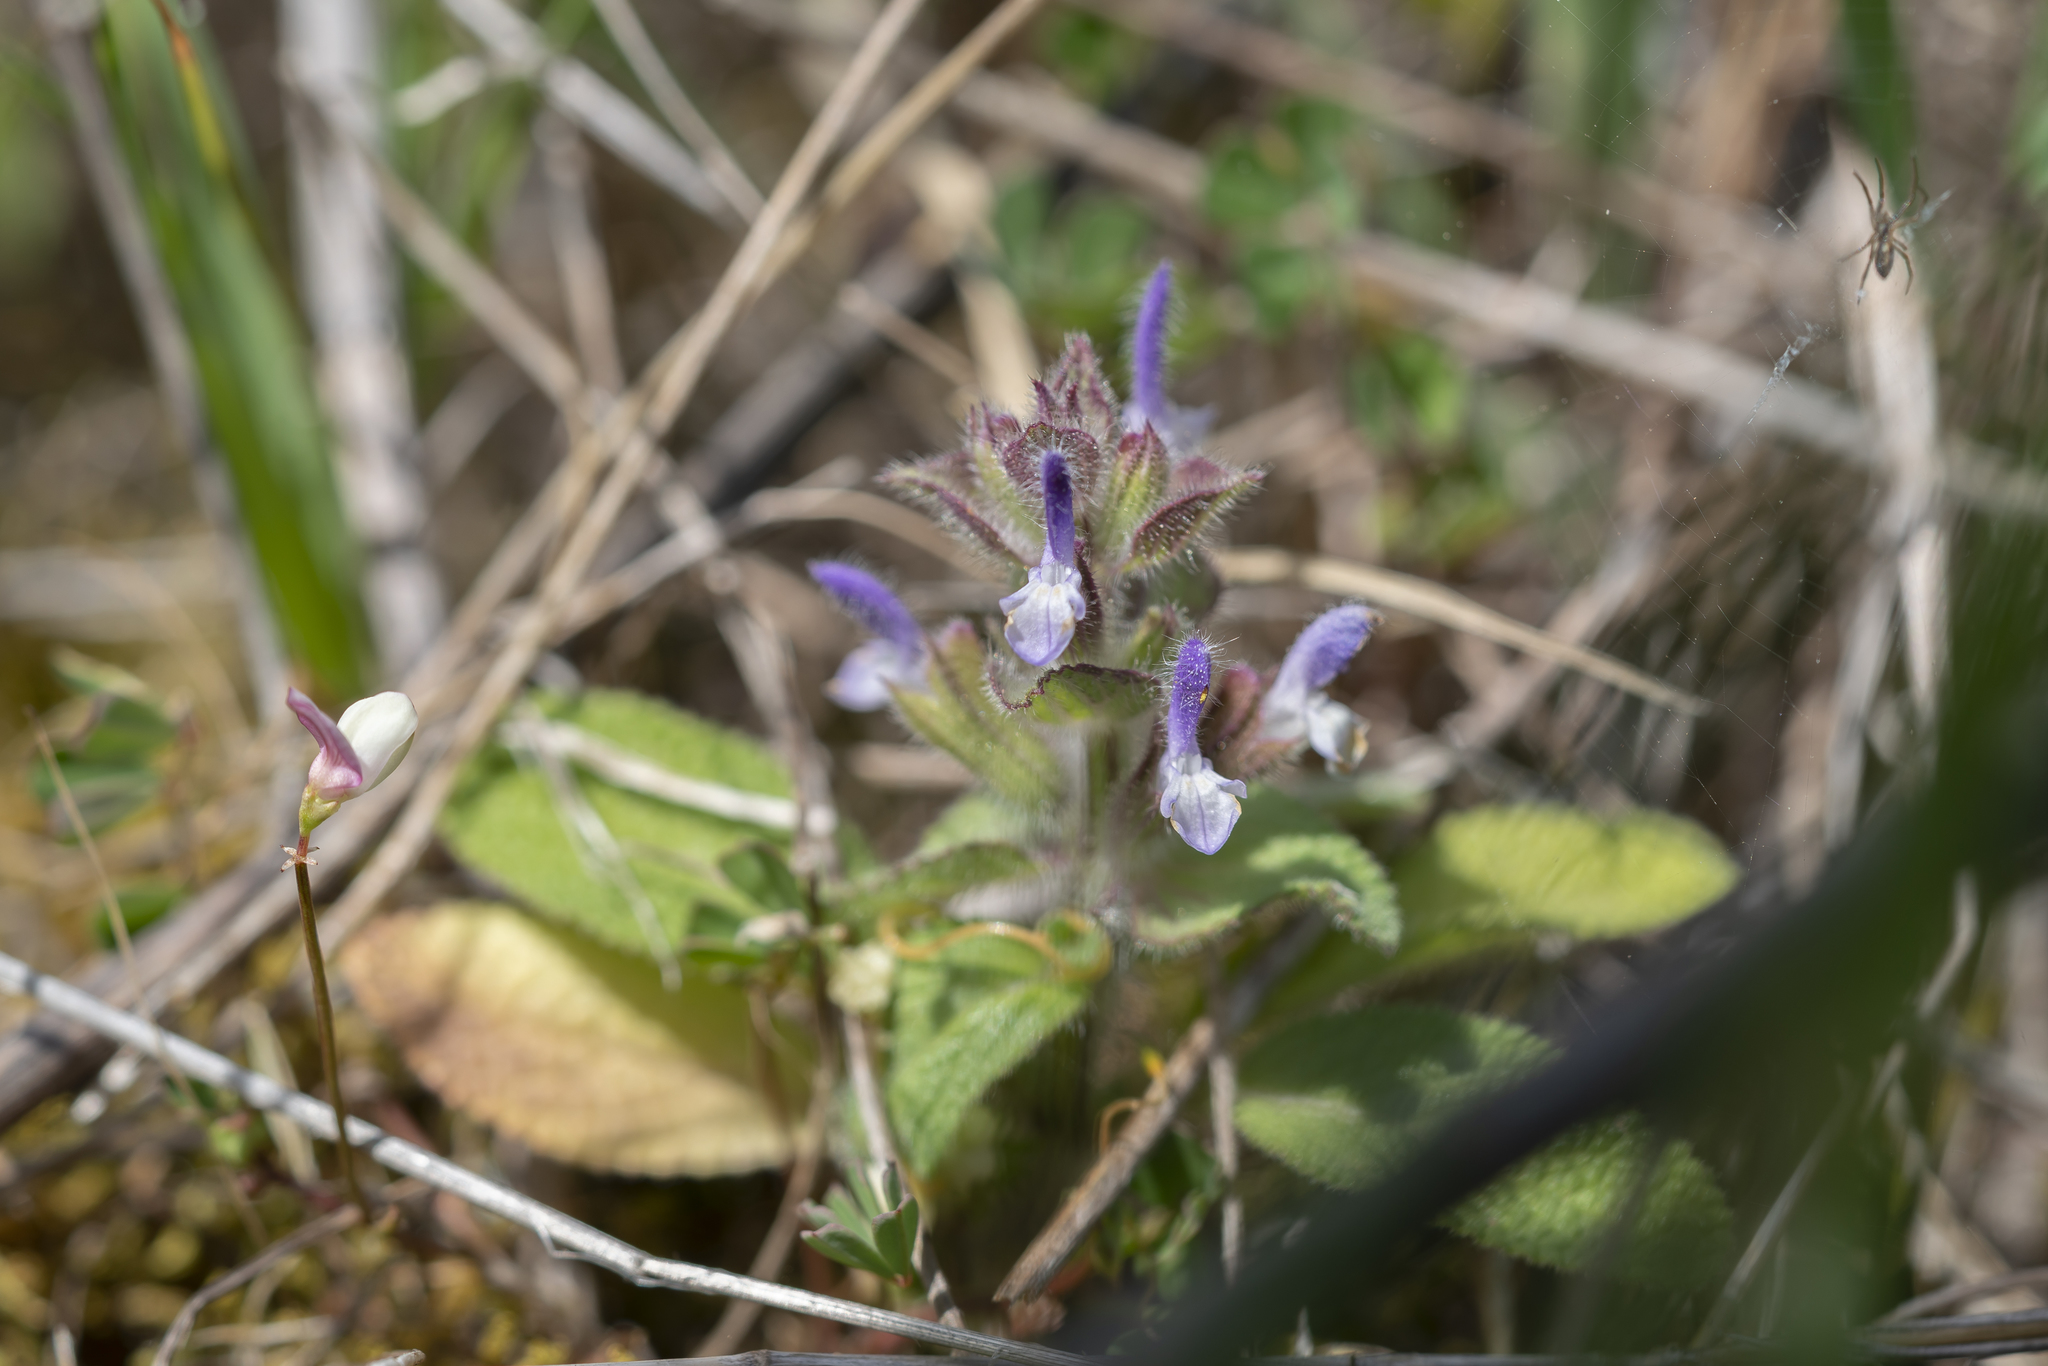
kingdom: Plantae
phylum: Tracheophyta
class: Magnoliopsida
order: Lamiales
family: Lamiaceae
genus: Salvia
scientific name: Salvia viridis
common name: Annual clary
